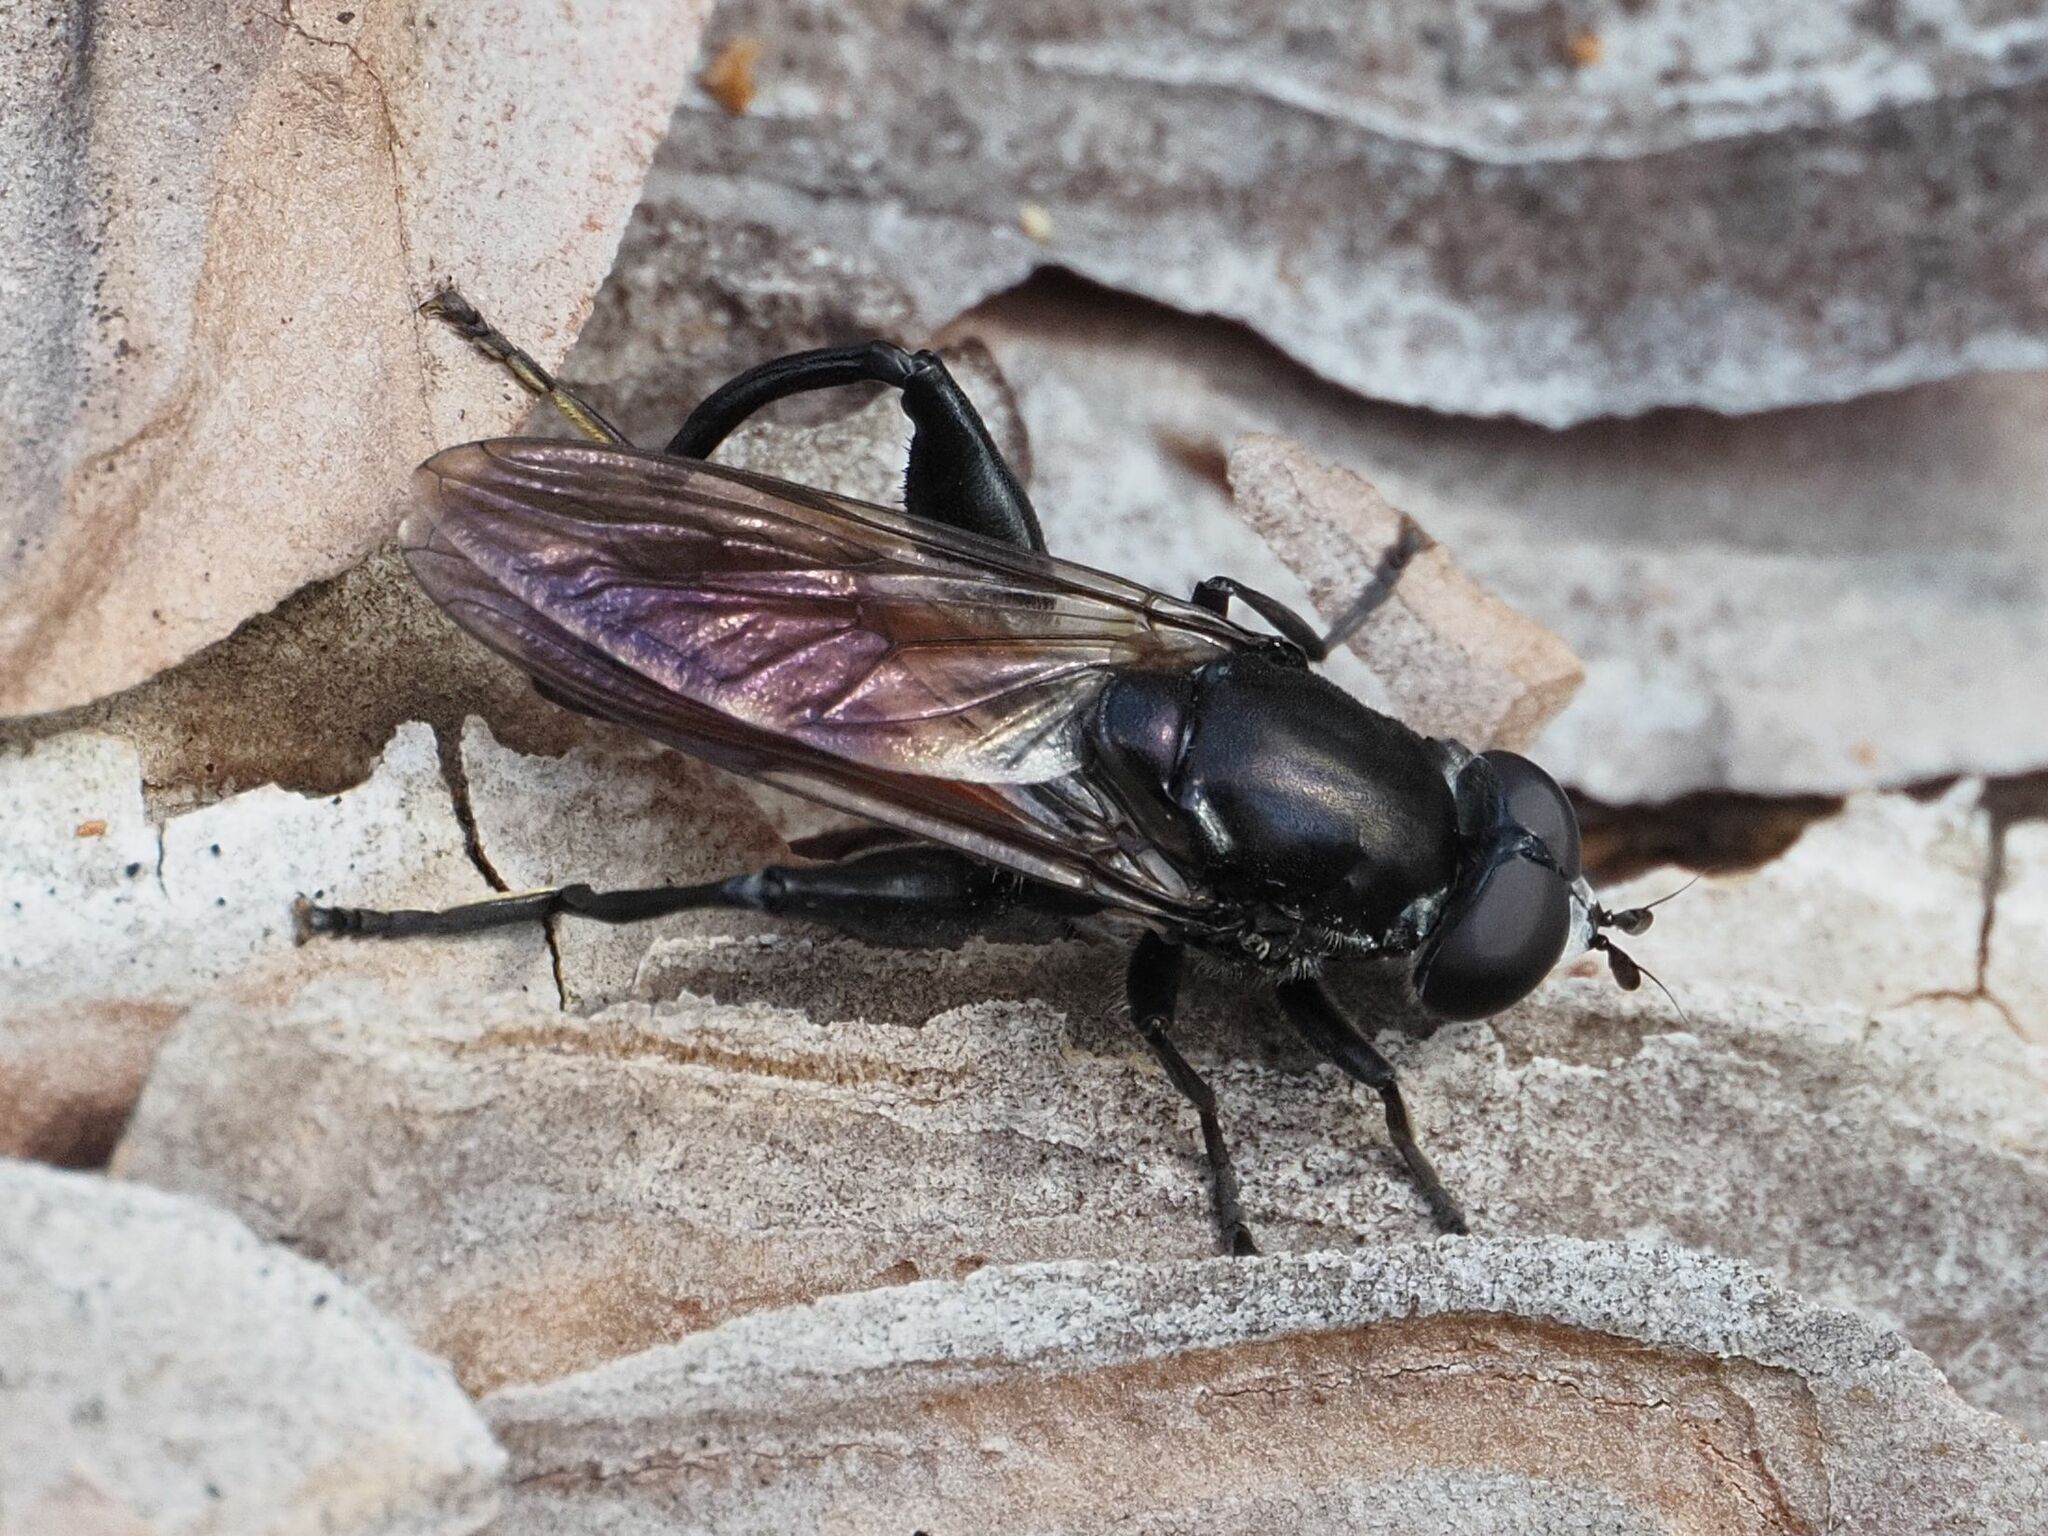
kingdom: Animalia
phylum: Arthropoda
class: Insecta
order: Diptera
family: Syrphidae
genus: Chalcosyrphus
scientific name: Chalcosyrphus piger
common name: Short-haired leafwalker
